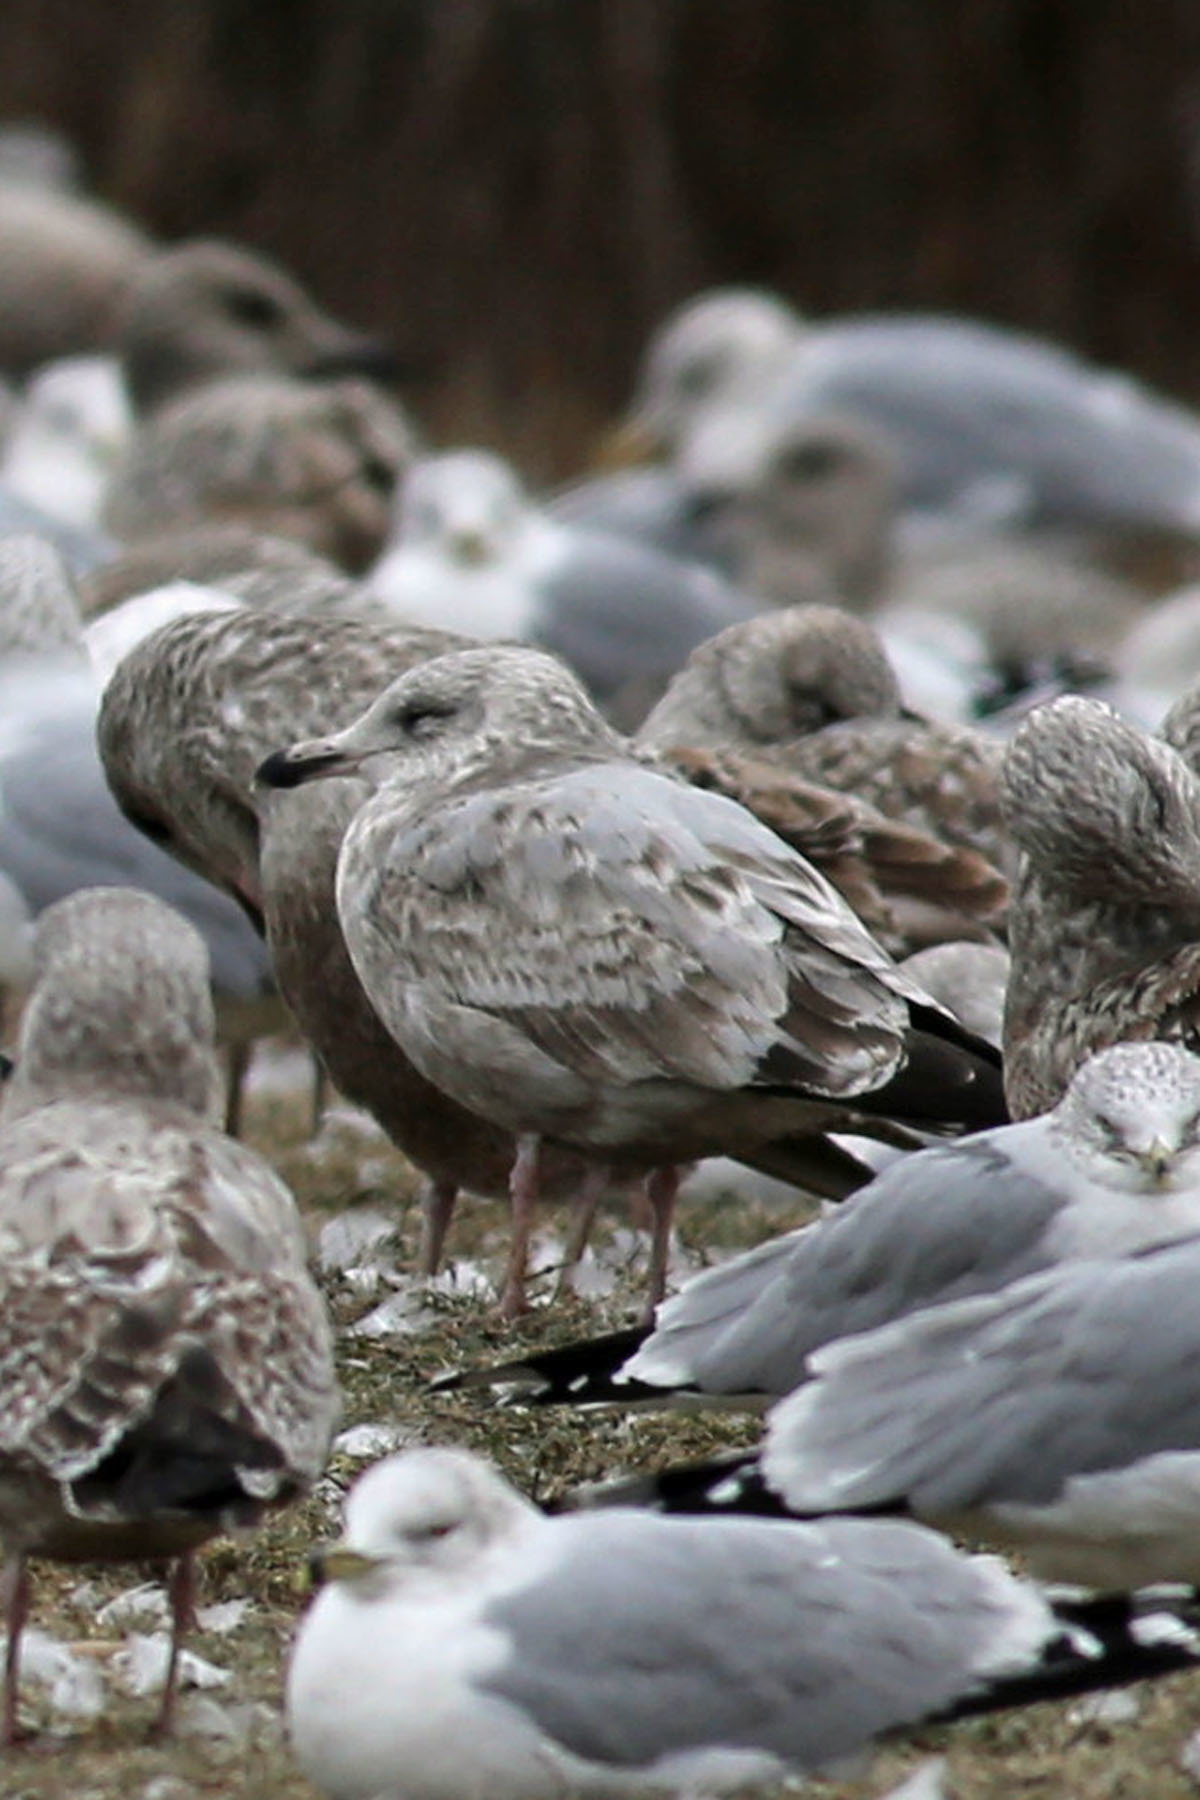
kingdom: Animalia
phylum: Chordata
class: Aves
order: Charadriiformes
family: Laridae
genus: Larus
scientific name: Larus argentatus
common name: Herring gull
